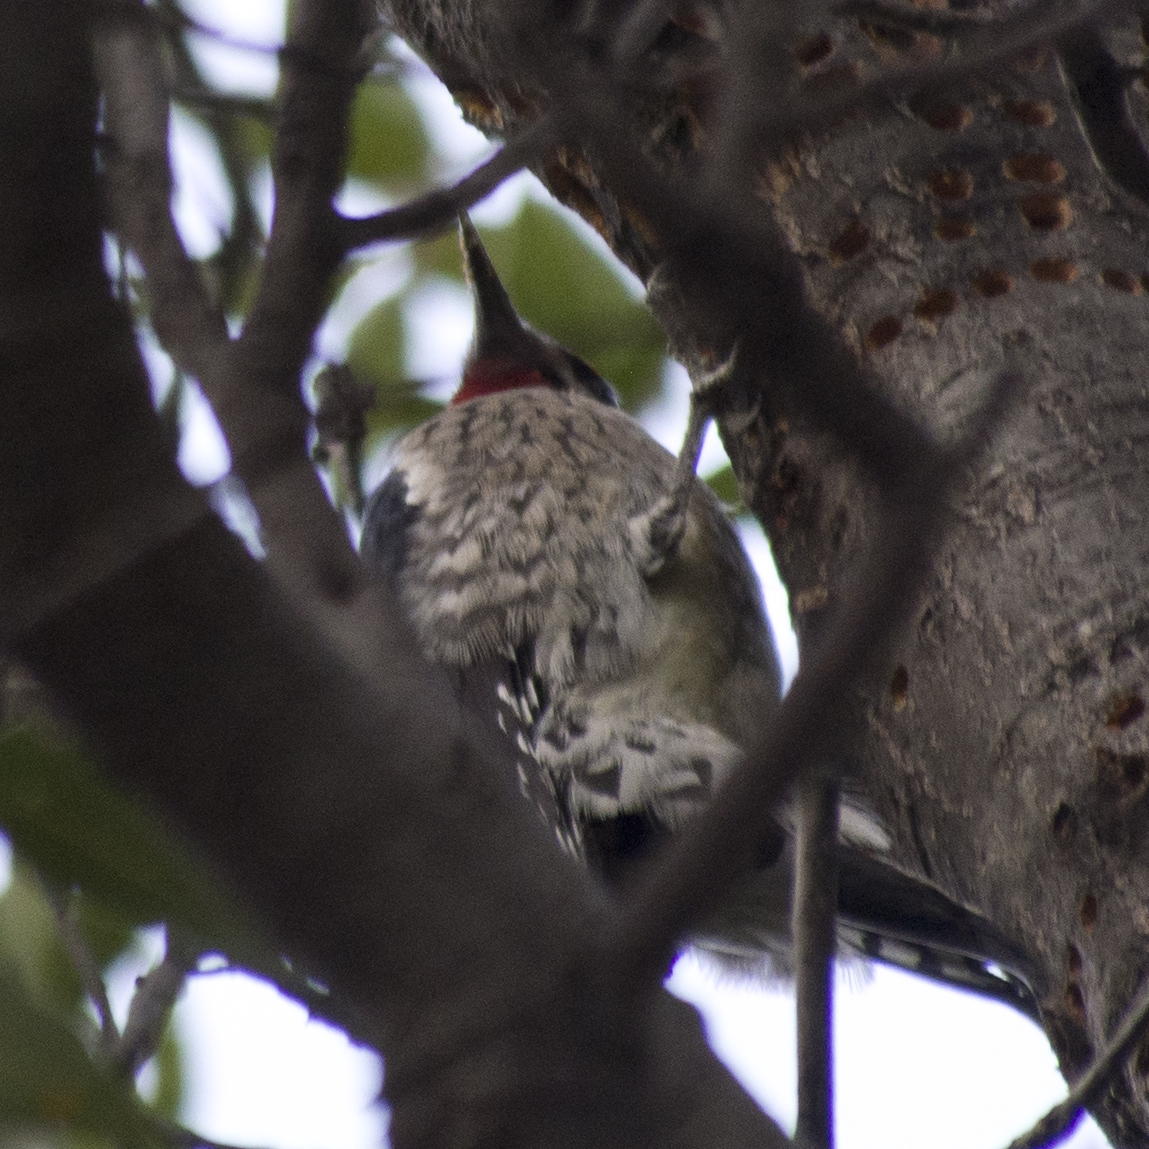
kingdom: Animalia
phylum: Chordata
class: Aves
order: Piciformes
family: Picidae
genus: Sphyrapicus
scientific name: Sphyrapicus nuchalis
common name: Red-naped sapsucker
